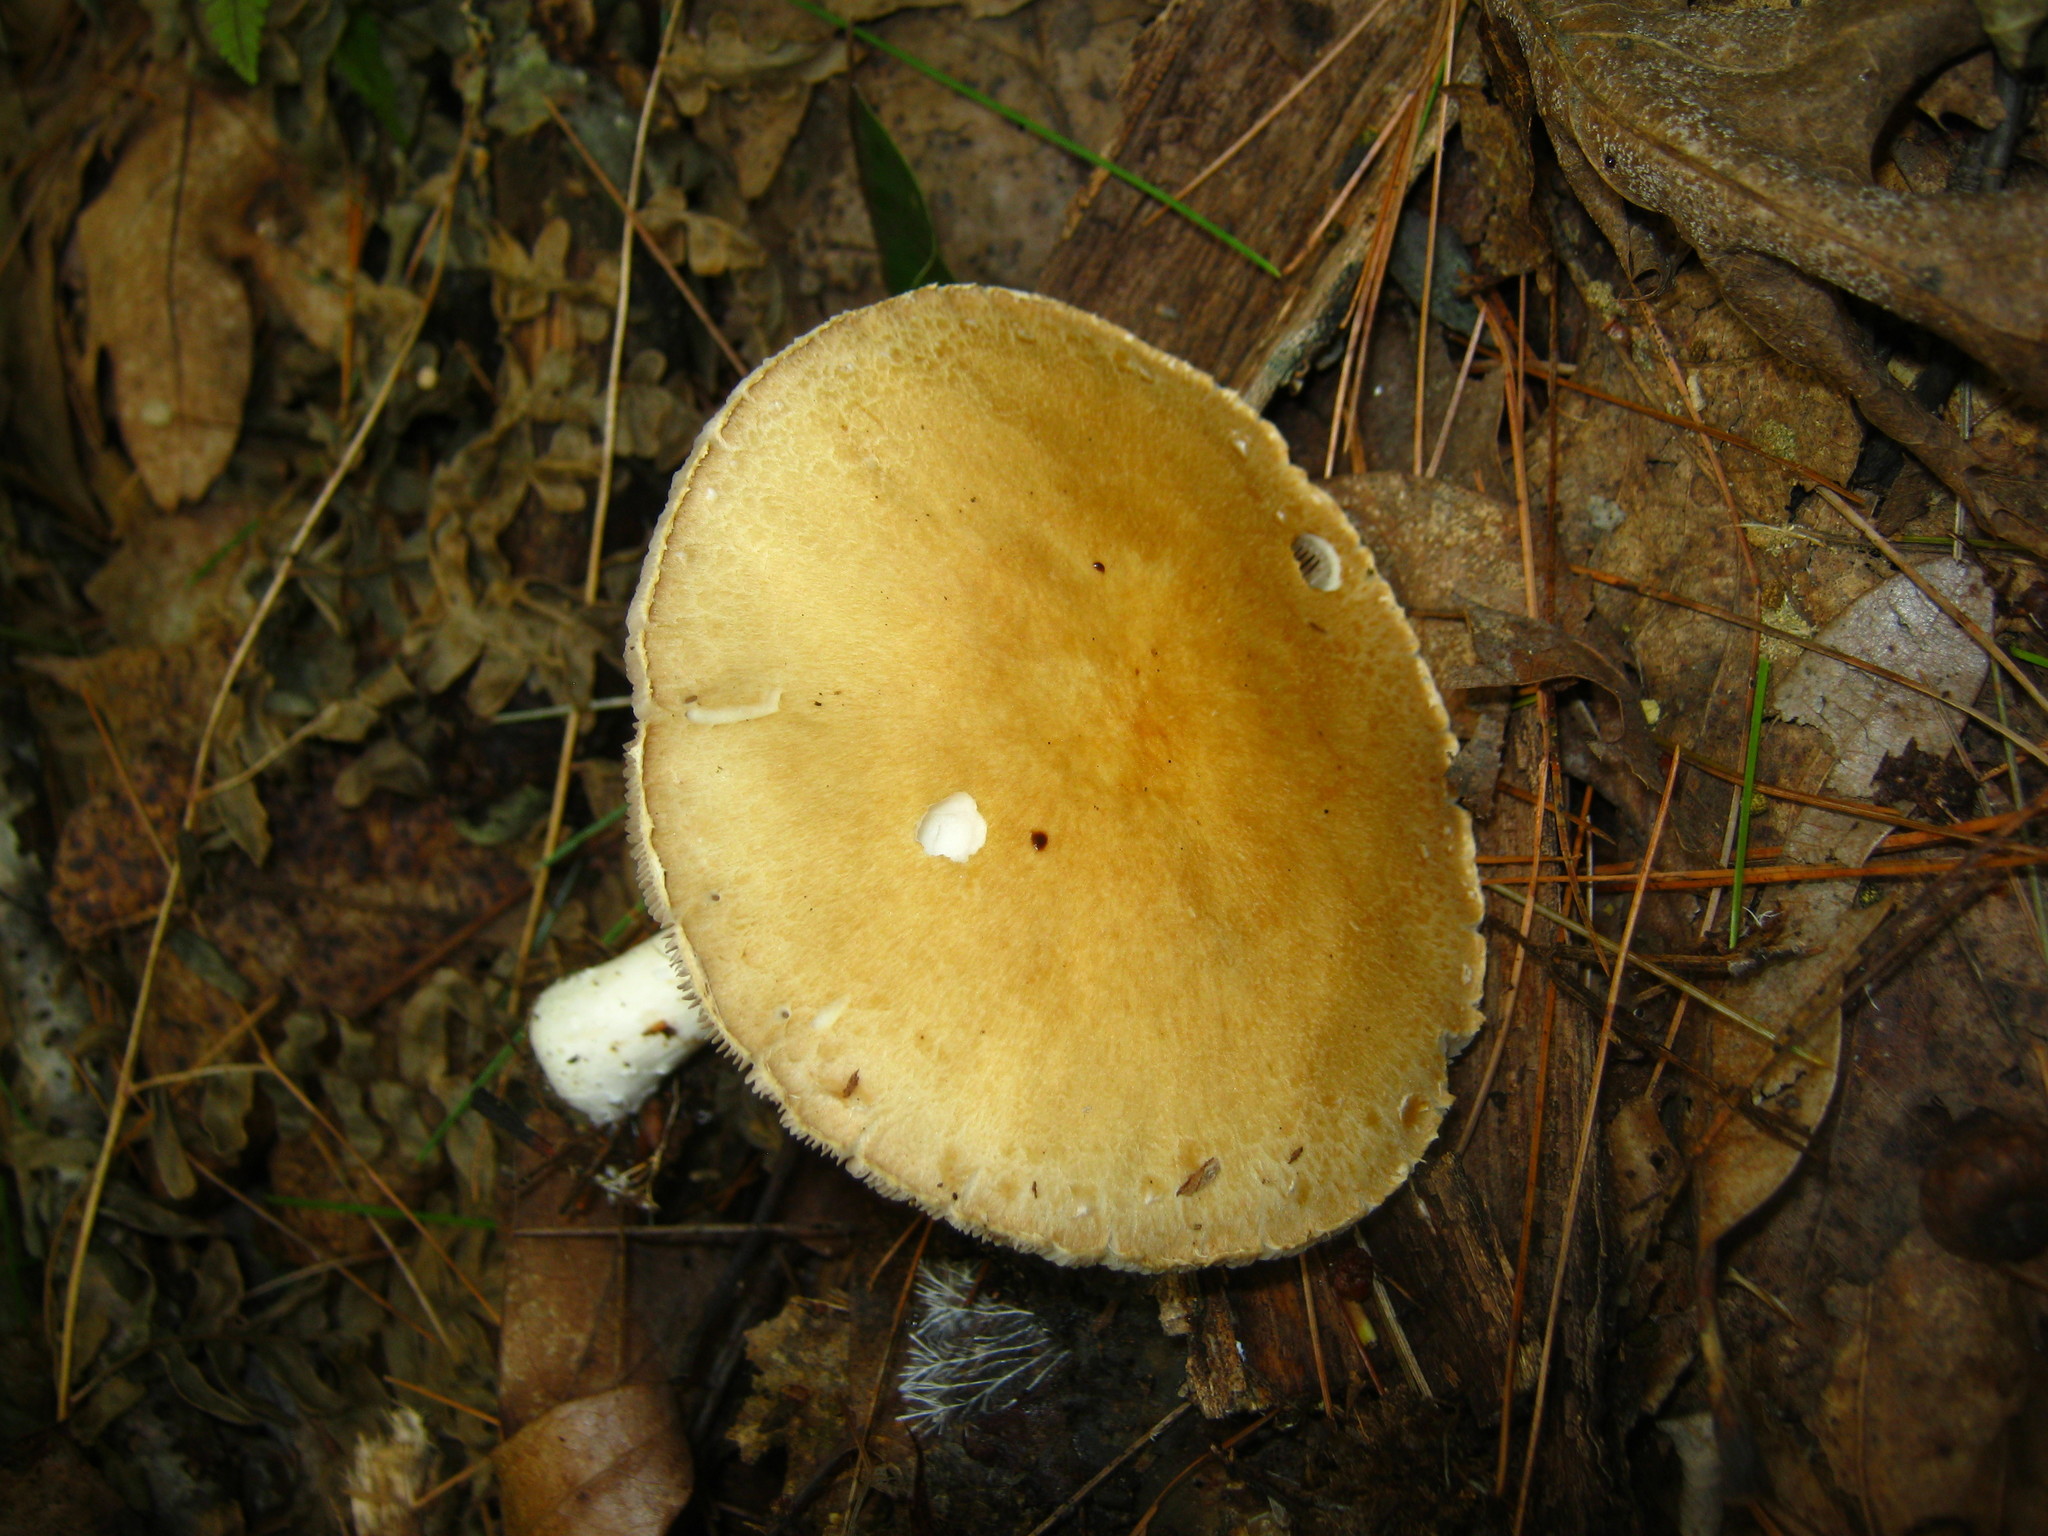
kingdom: Fungi
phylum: Basidiomycota
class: Agaricomycetes
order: Agaricales
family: Strophariaceae
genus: Stropharia
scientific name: Stropharia hardii
